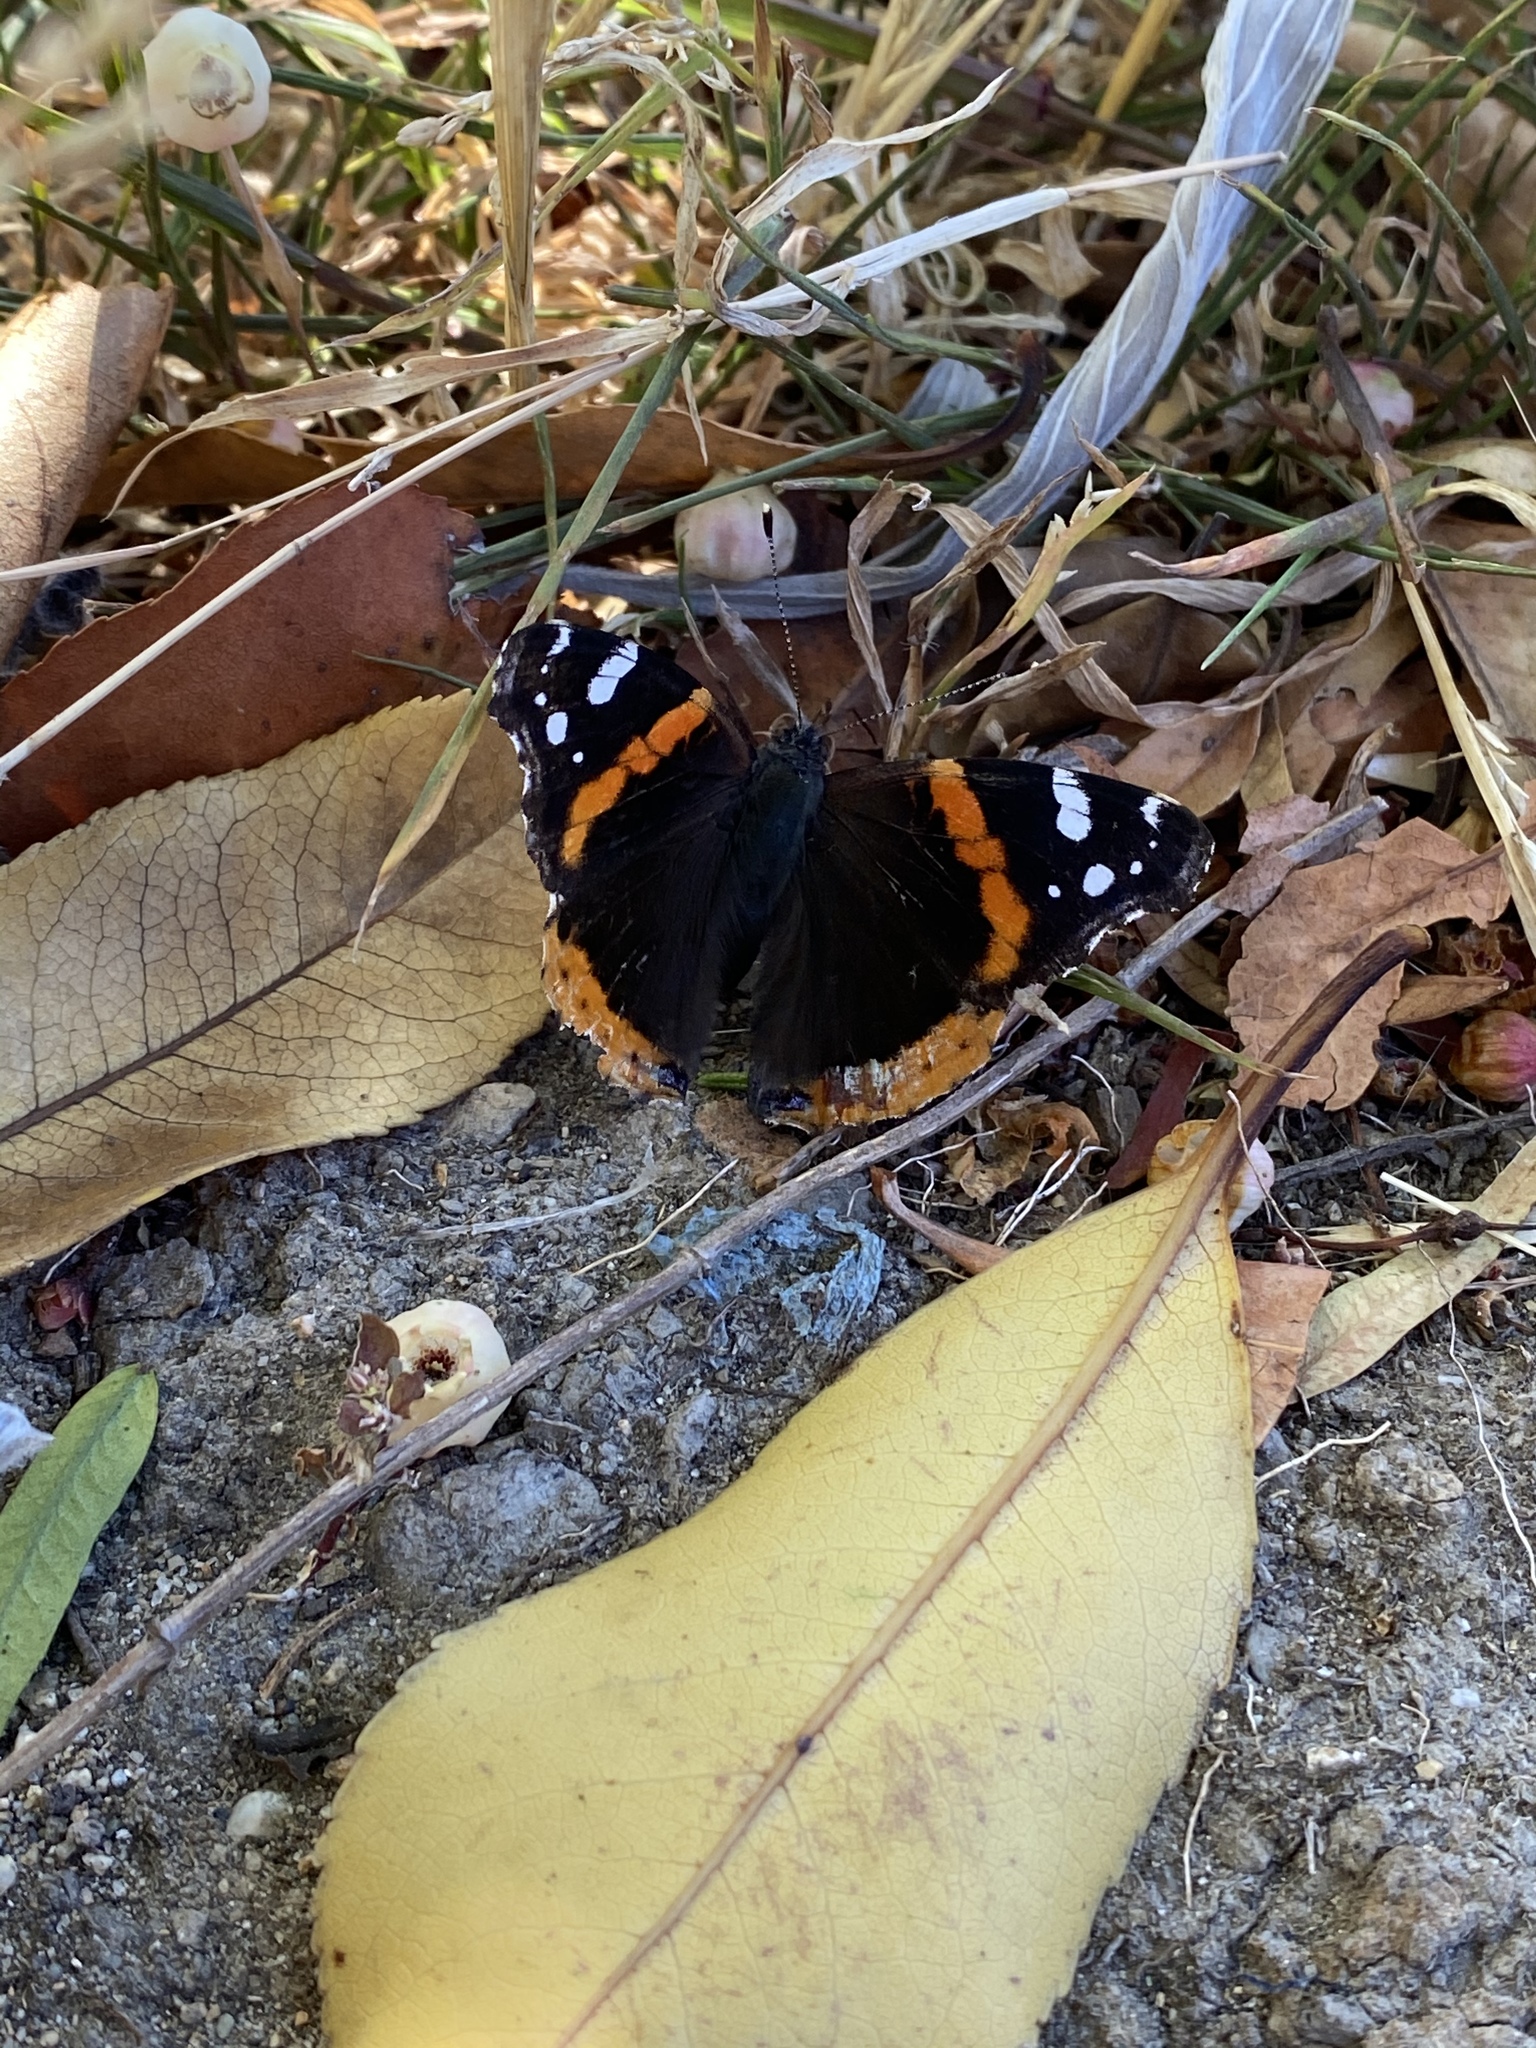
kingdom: Animalia
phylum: Arthropoda
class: Insecta
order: Lepidoptera
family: Nymphalidae
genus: Vanessa
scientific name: Vanessa atalanta
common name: Red admiral
